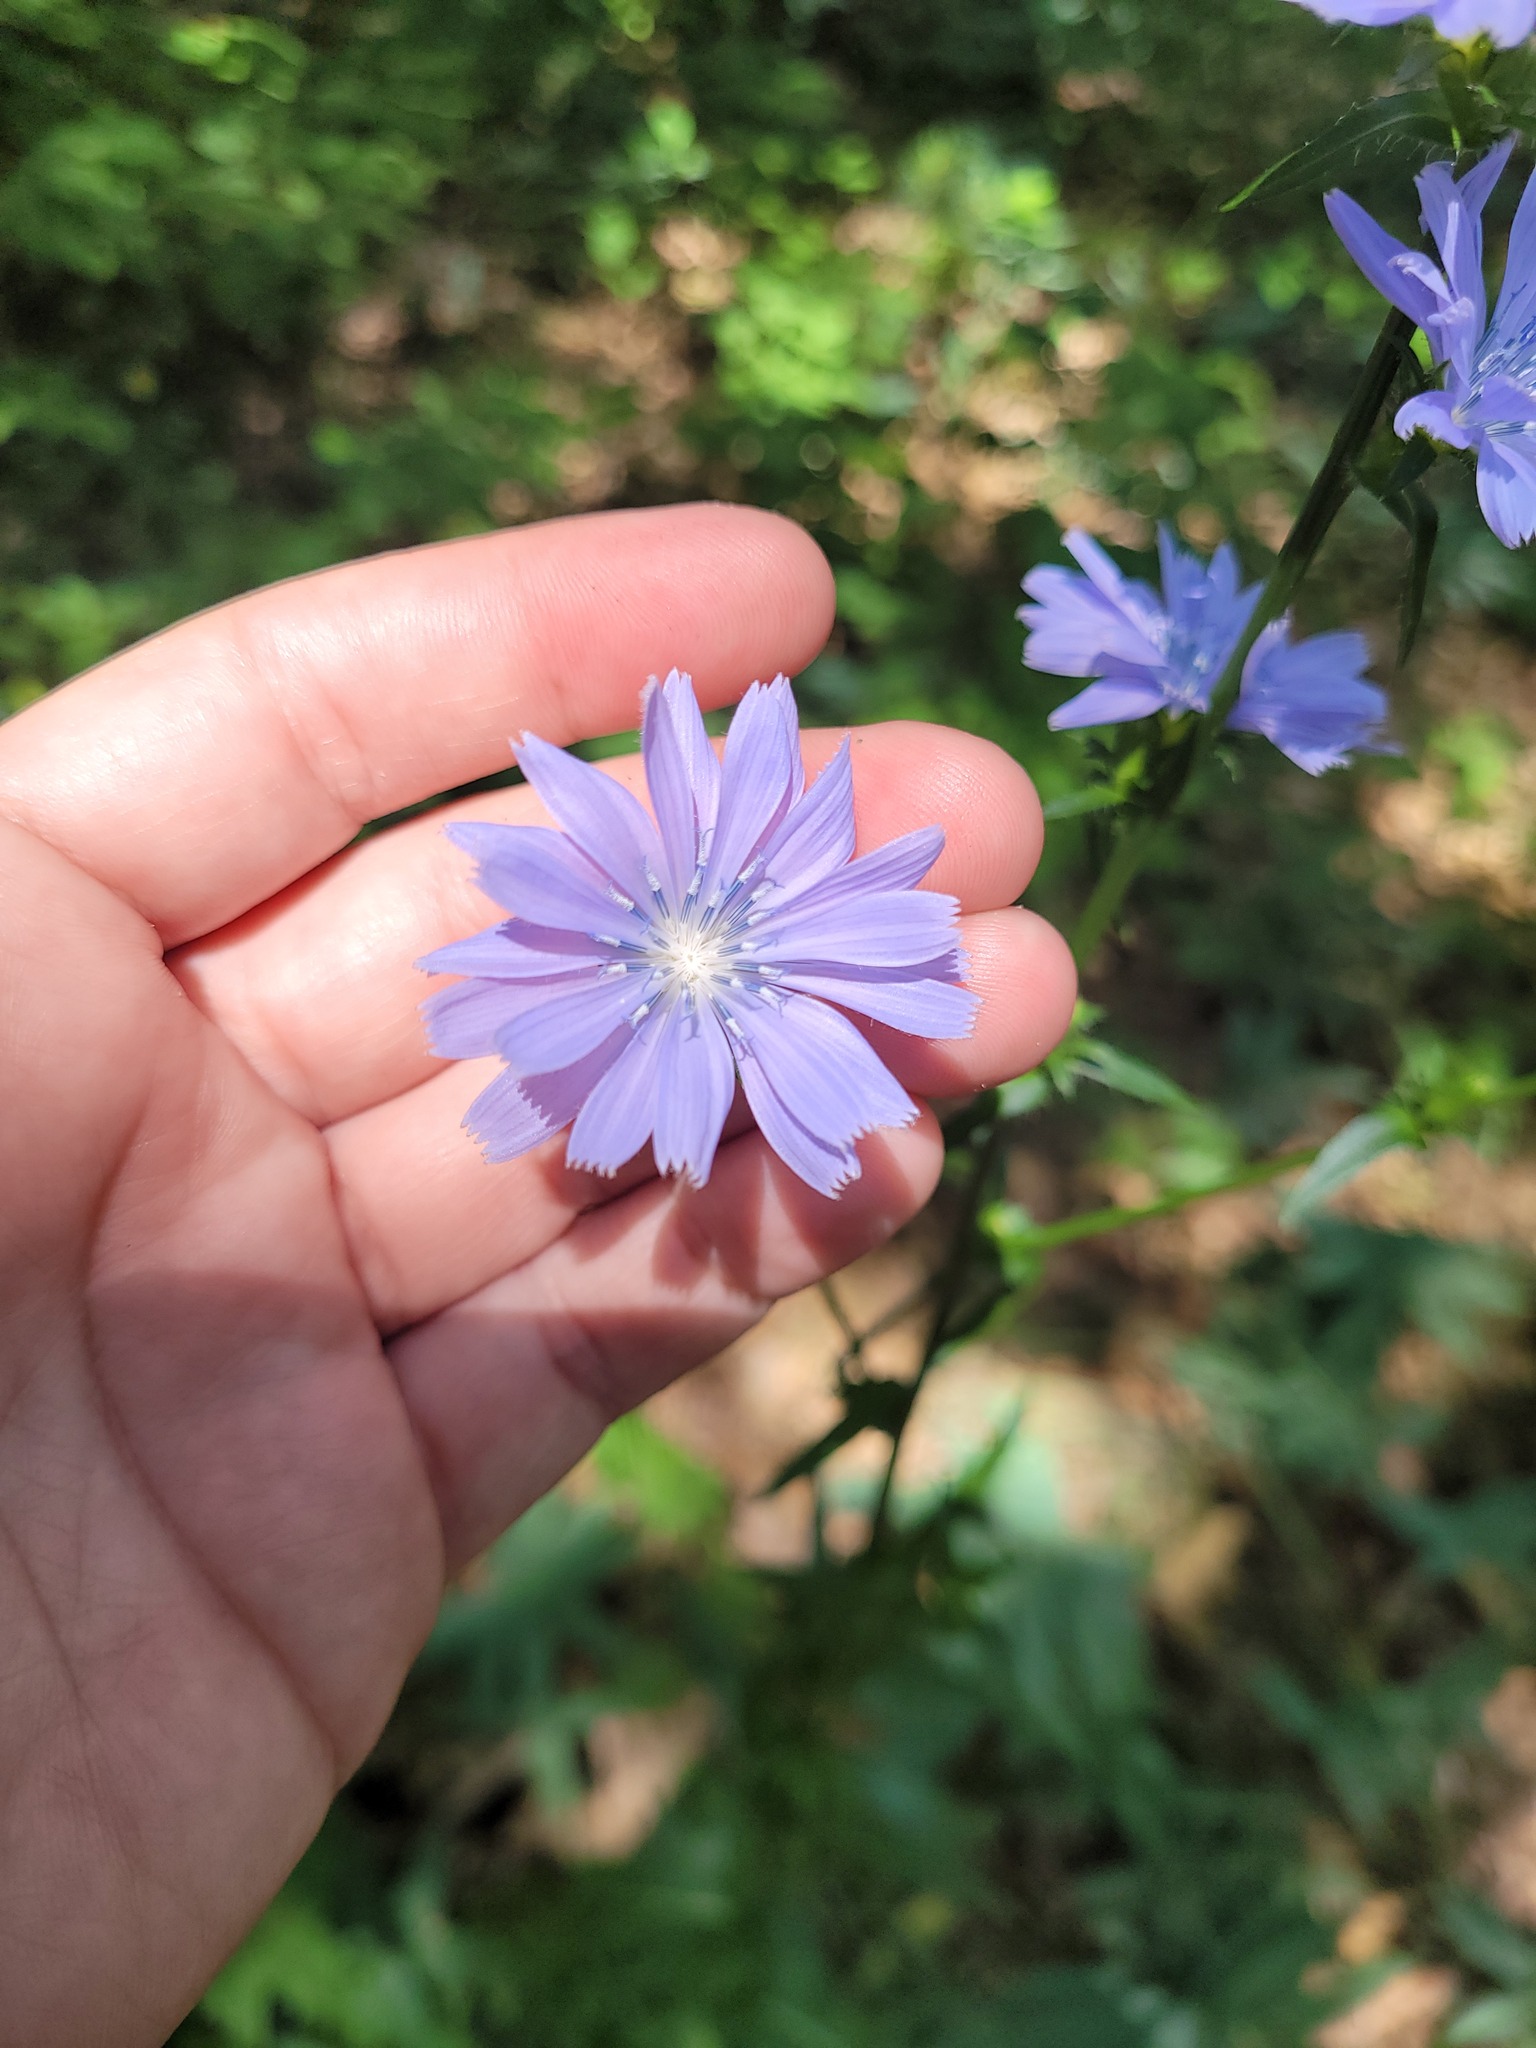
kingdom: Plantae
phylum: Tracheophyta
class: Magnoliopsida
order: Asterales
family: Asteraceae
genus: Cichorium
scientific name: Cichorium intybus
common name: Chicory
